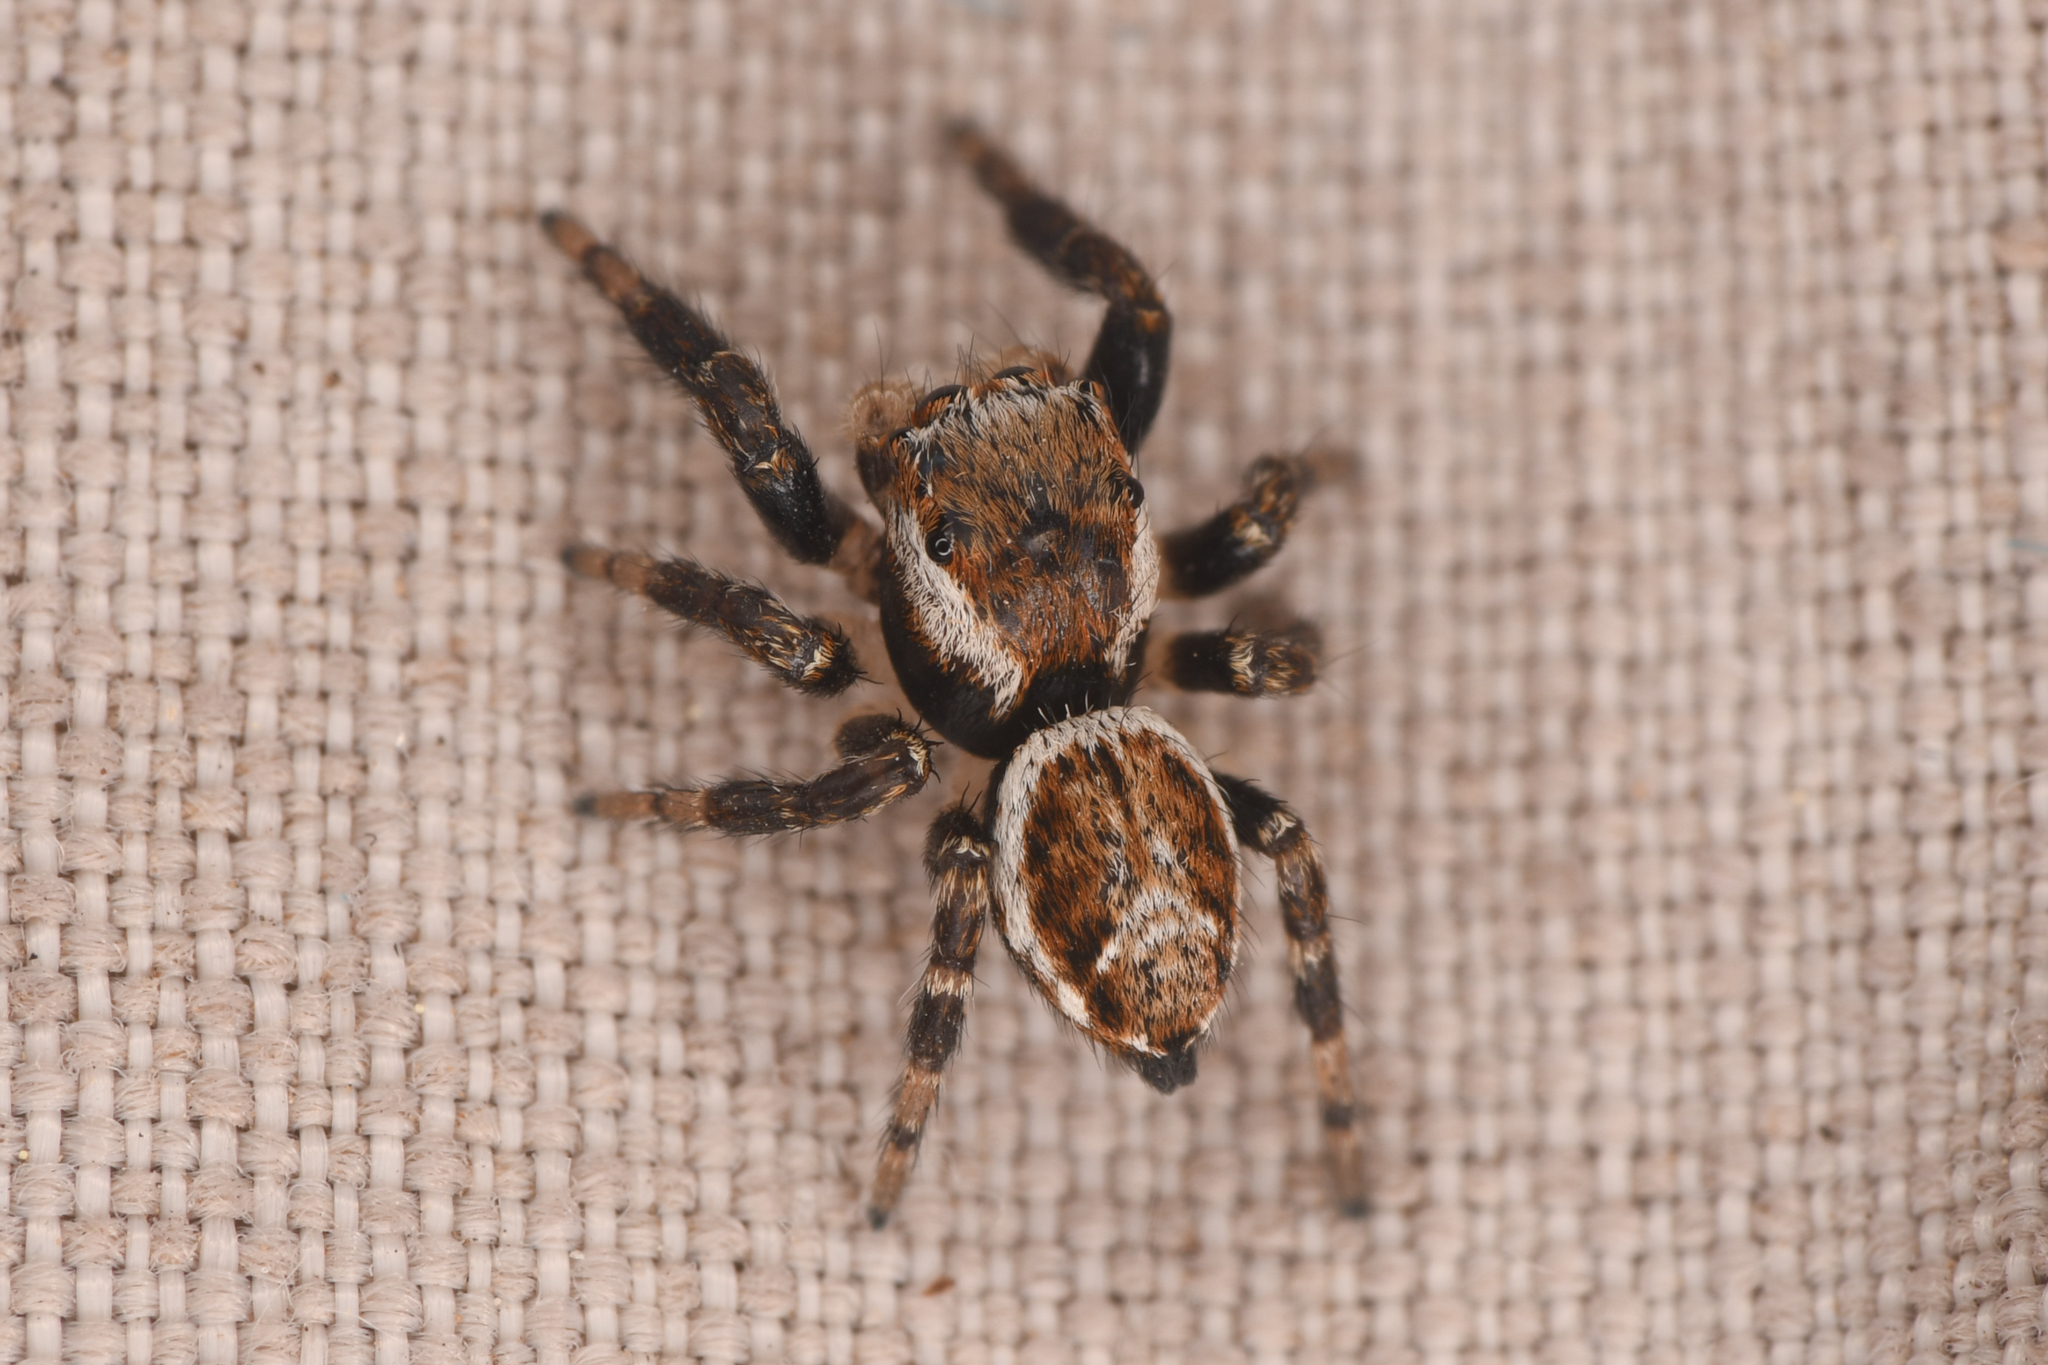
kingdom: Animalia
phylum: Arthropoda
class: Arachnida
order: Araneae
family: Salticidae
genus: Evarcha
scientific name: Evarcha proszynskii
